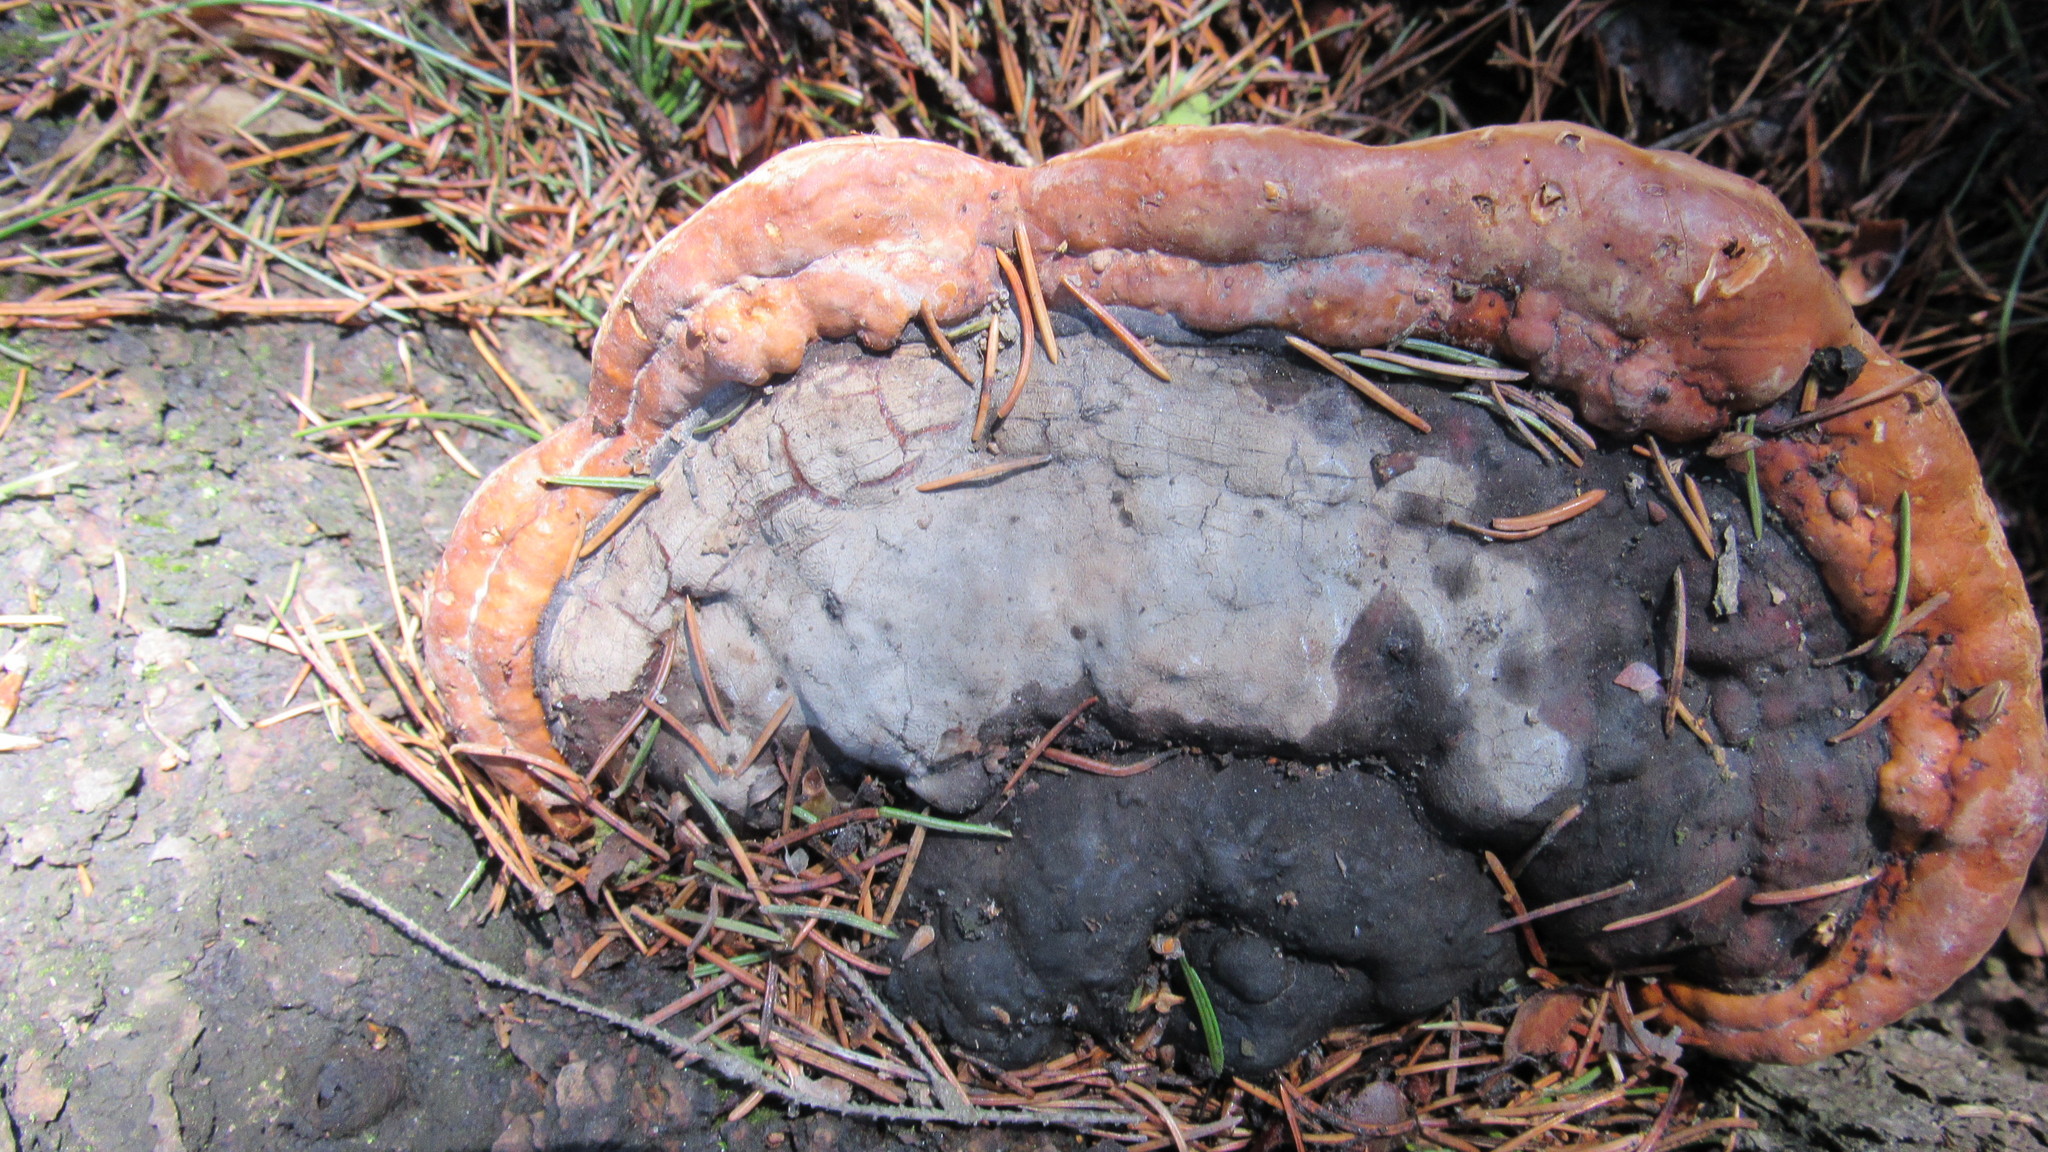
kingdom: Fungi
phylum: Basidiomycota
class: Agaricomycetes
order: Polyporales
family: Fomitopsidaceae
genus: Fomitopsis
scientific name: Fomitopsis pinicola
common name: Red-belted bracket
